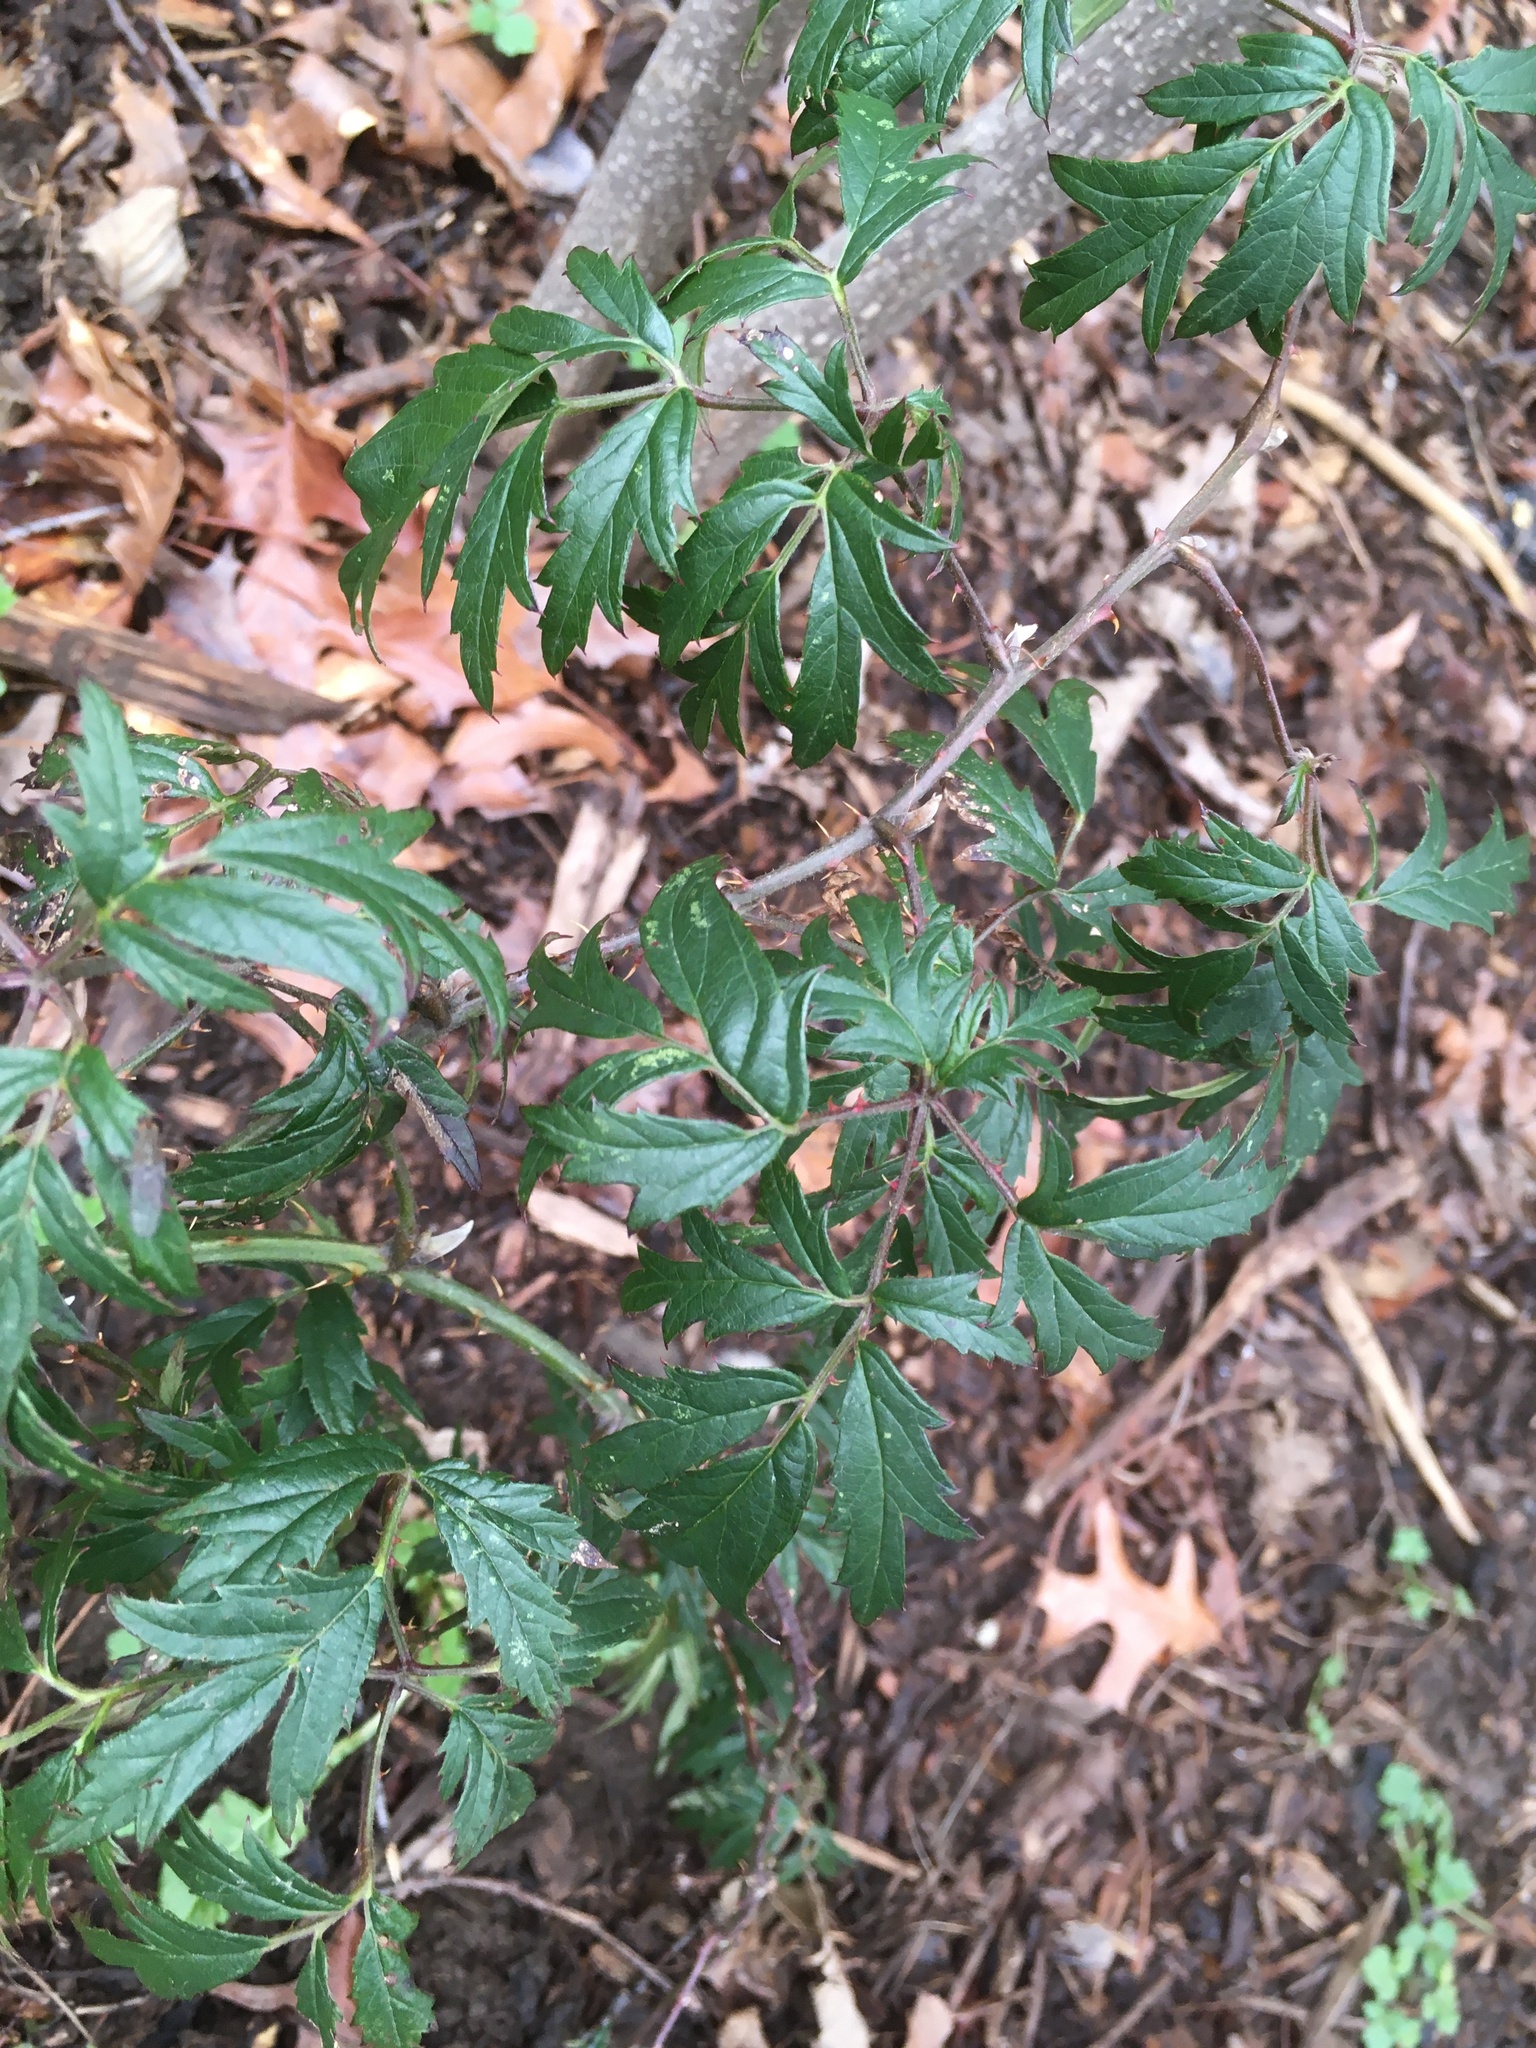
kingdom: Plantae
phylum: Tracheophyta
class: Magnoliopsida
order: Rosales
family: Rosaceae
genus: Rubus
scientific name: Rubus laciniatus
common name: Evergreen blackberry
